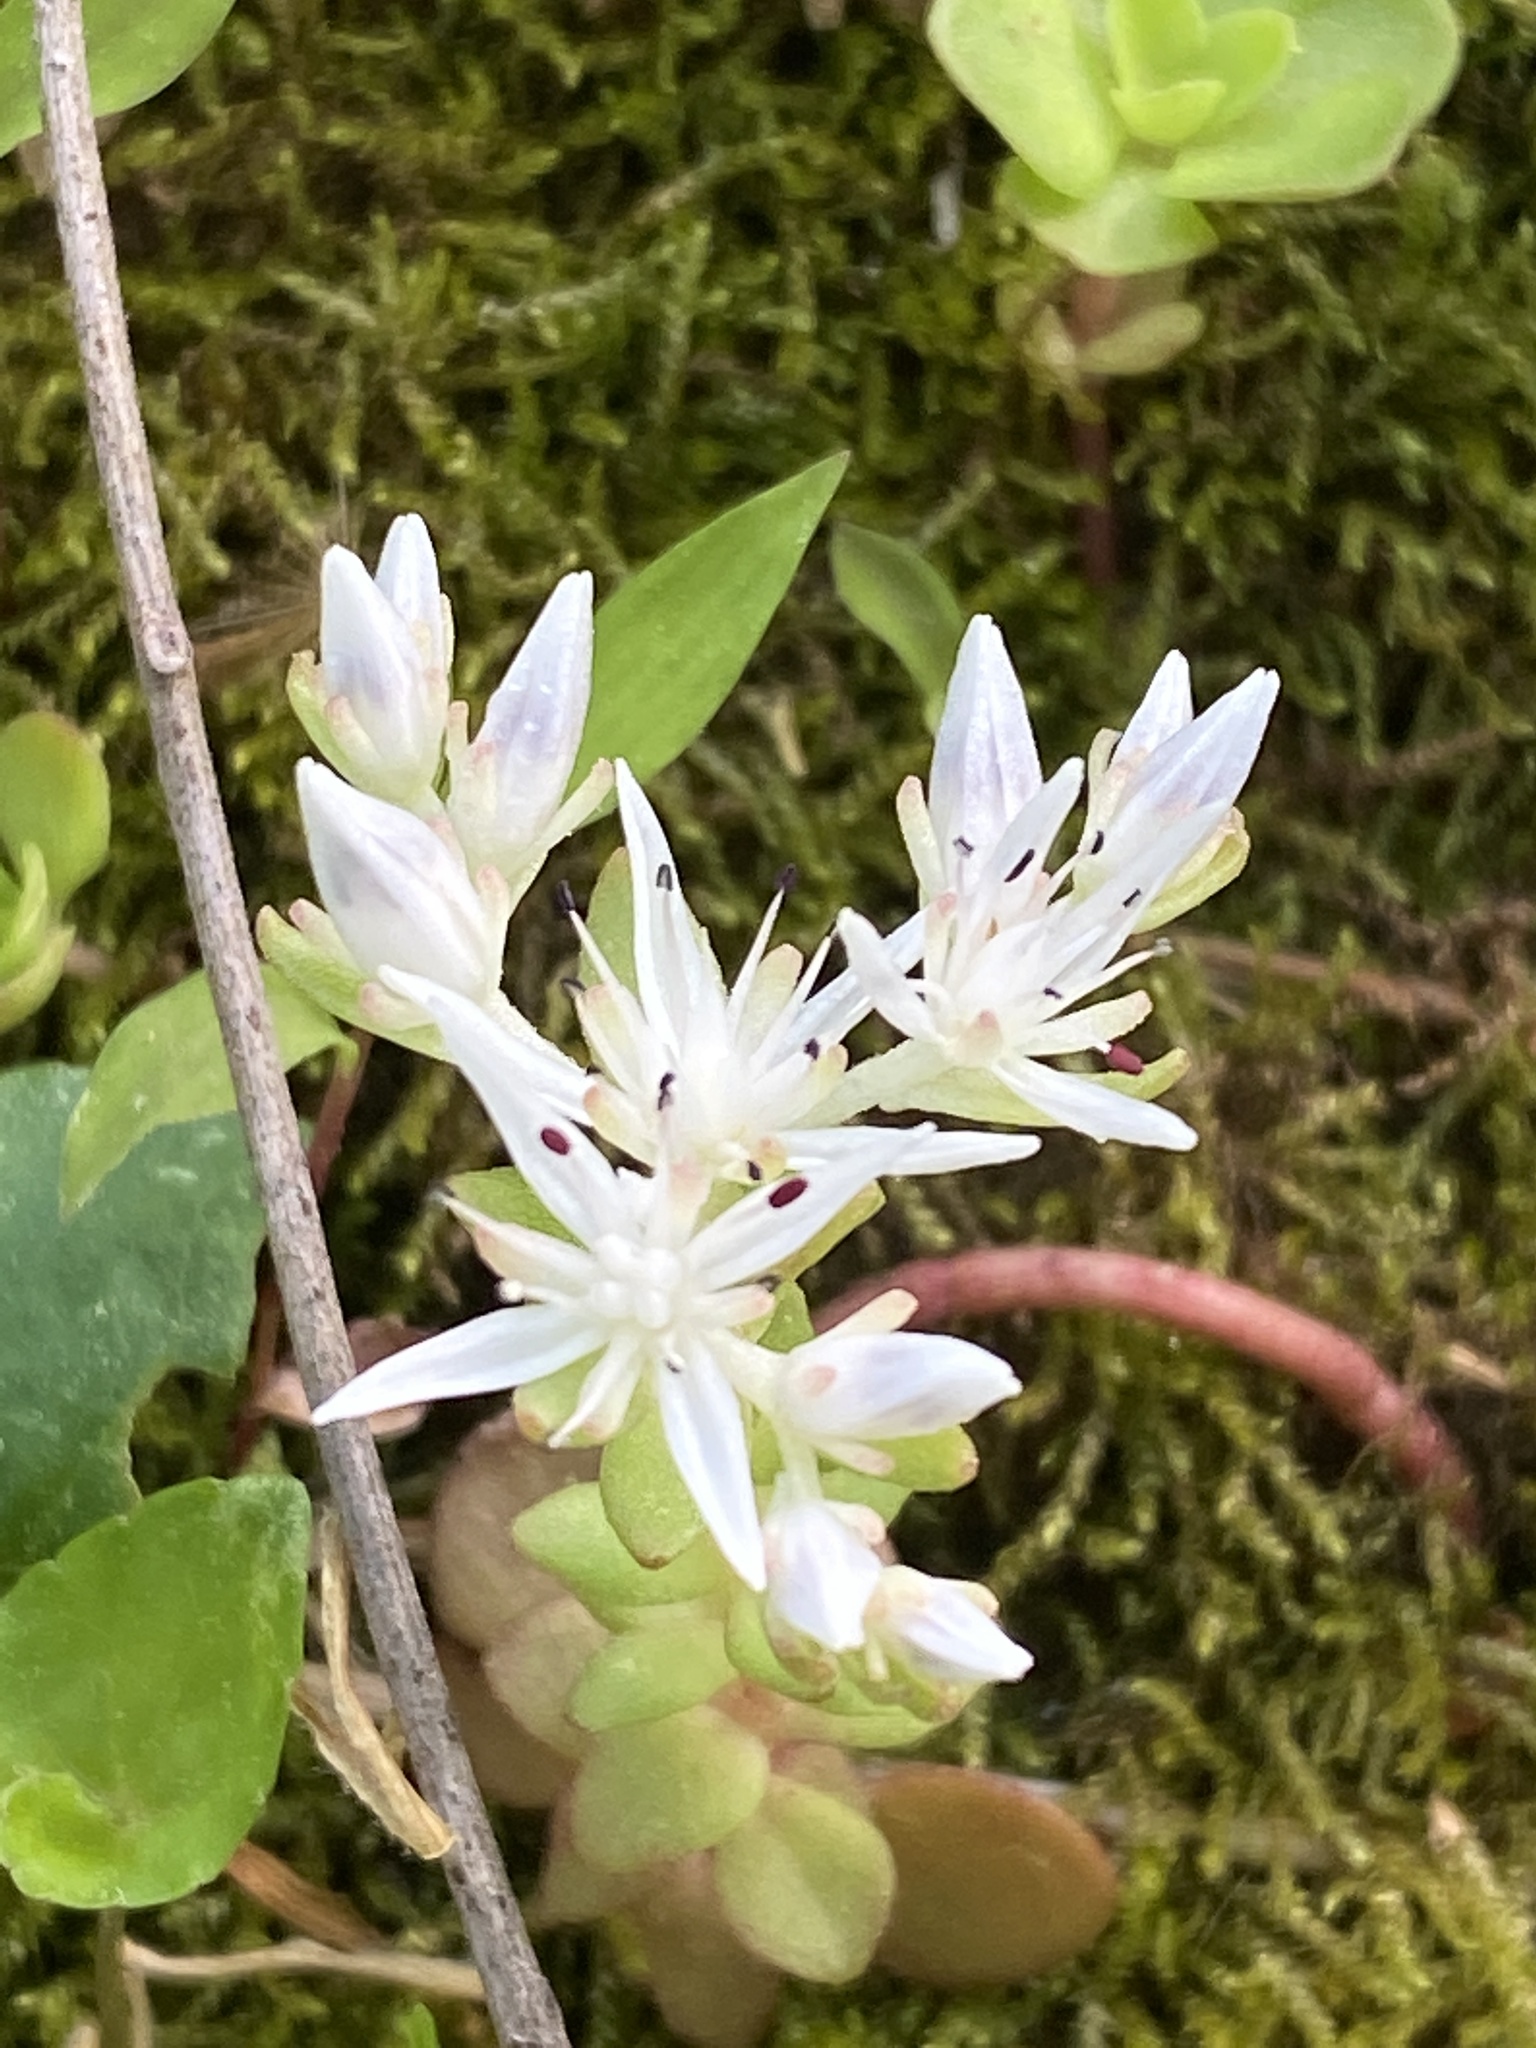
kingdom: Plantae
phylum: Tracheophyta
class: Magnoliopsida
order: Saxifragales
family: Crassulaceae
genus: Sedum
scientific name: Sedum ternatum
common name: Wild stonecrop
